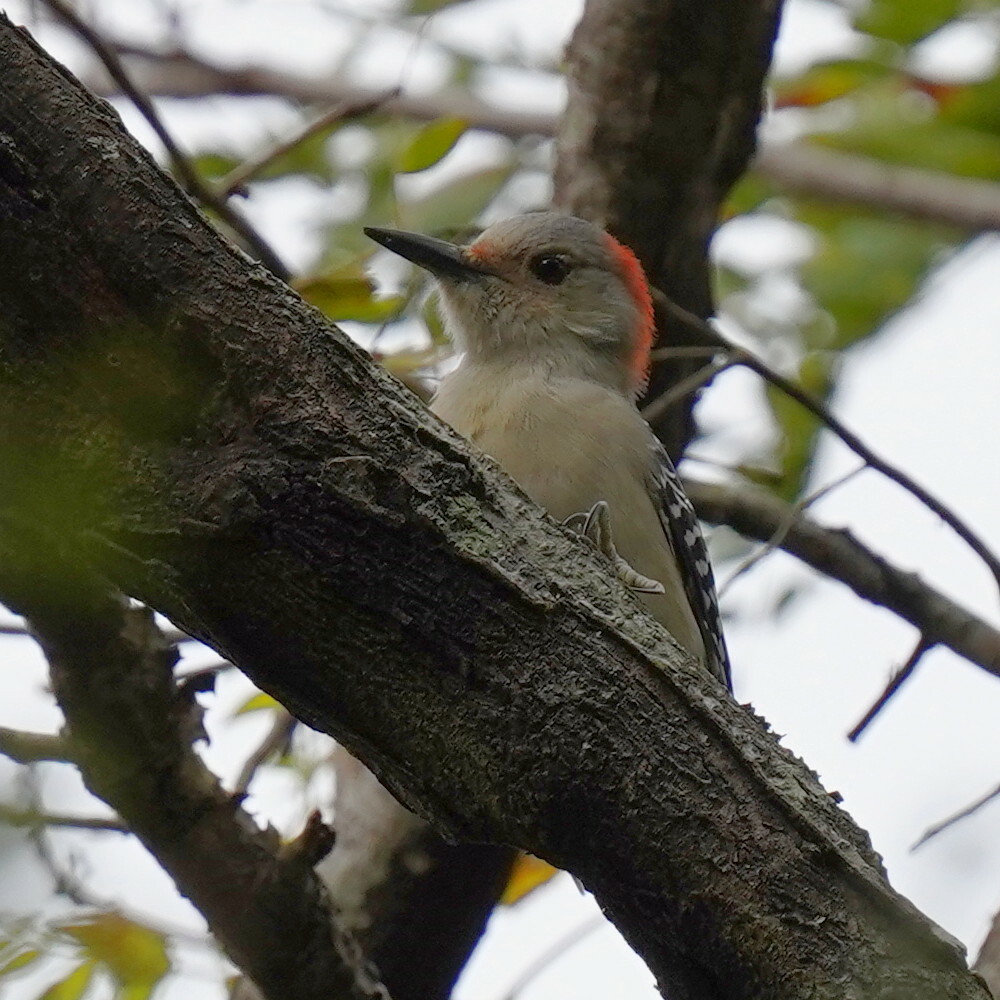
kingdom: Animalia
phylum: Chordata
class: Aves
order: Piciformes
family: Picidae
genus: Melanerpes
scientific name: Melanerpes carolinus
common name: Red-bellied woodpecker
